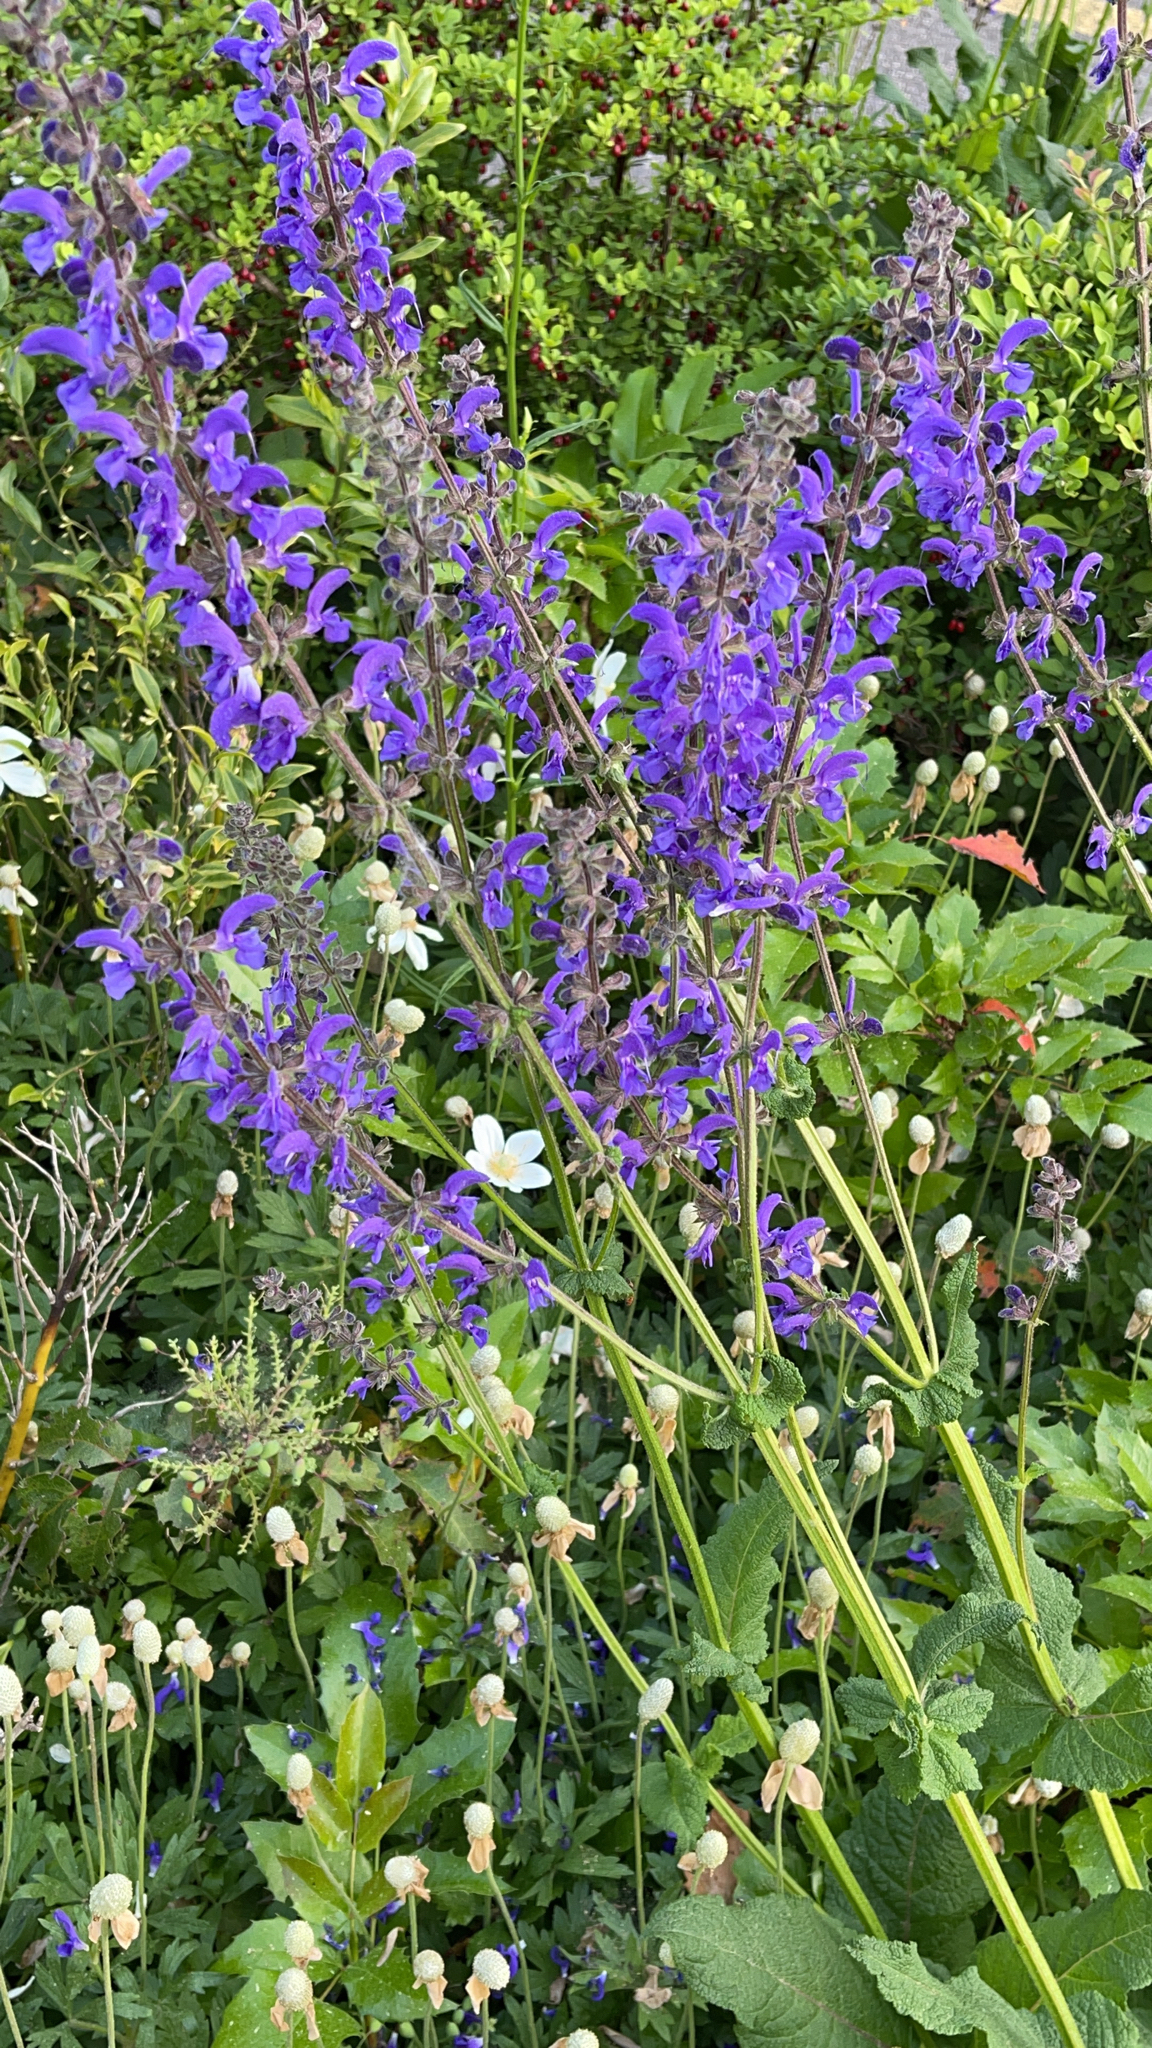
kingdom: Plantae
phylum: Tracheophyta
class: Magnoliopsida
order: Lamiales
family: Lamiaceae
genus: Salvia
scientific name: Salvia pratensis
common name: Meadow sage
